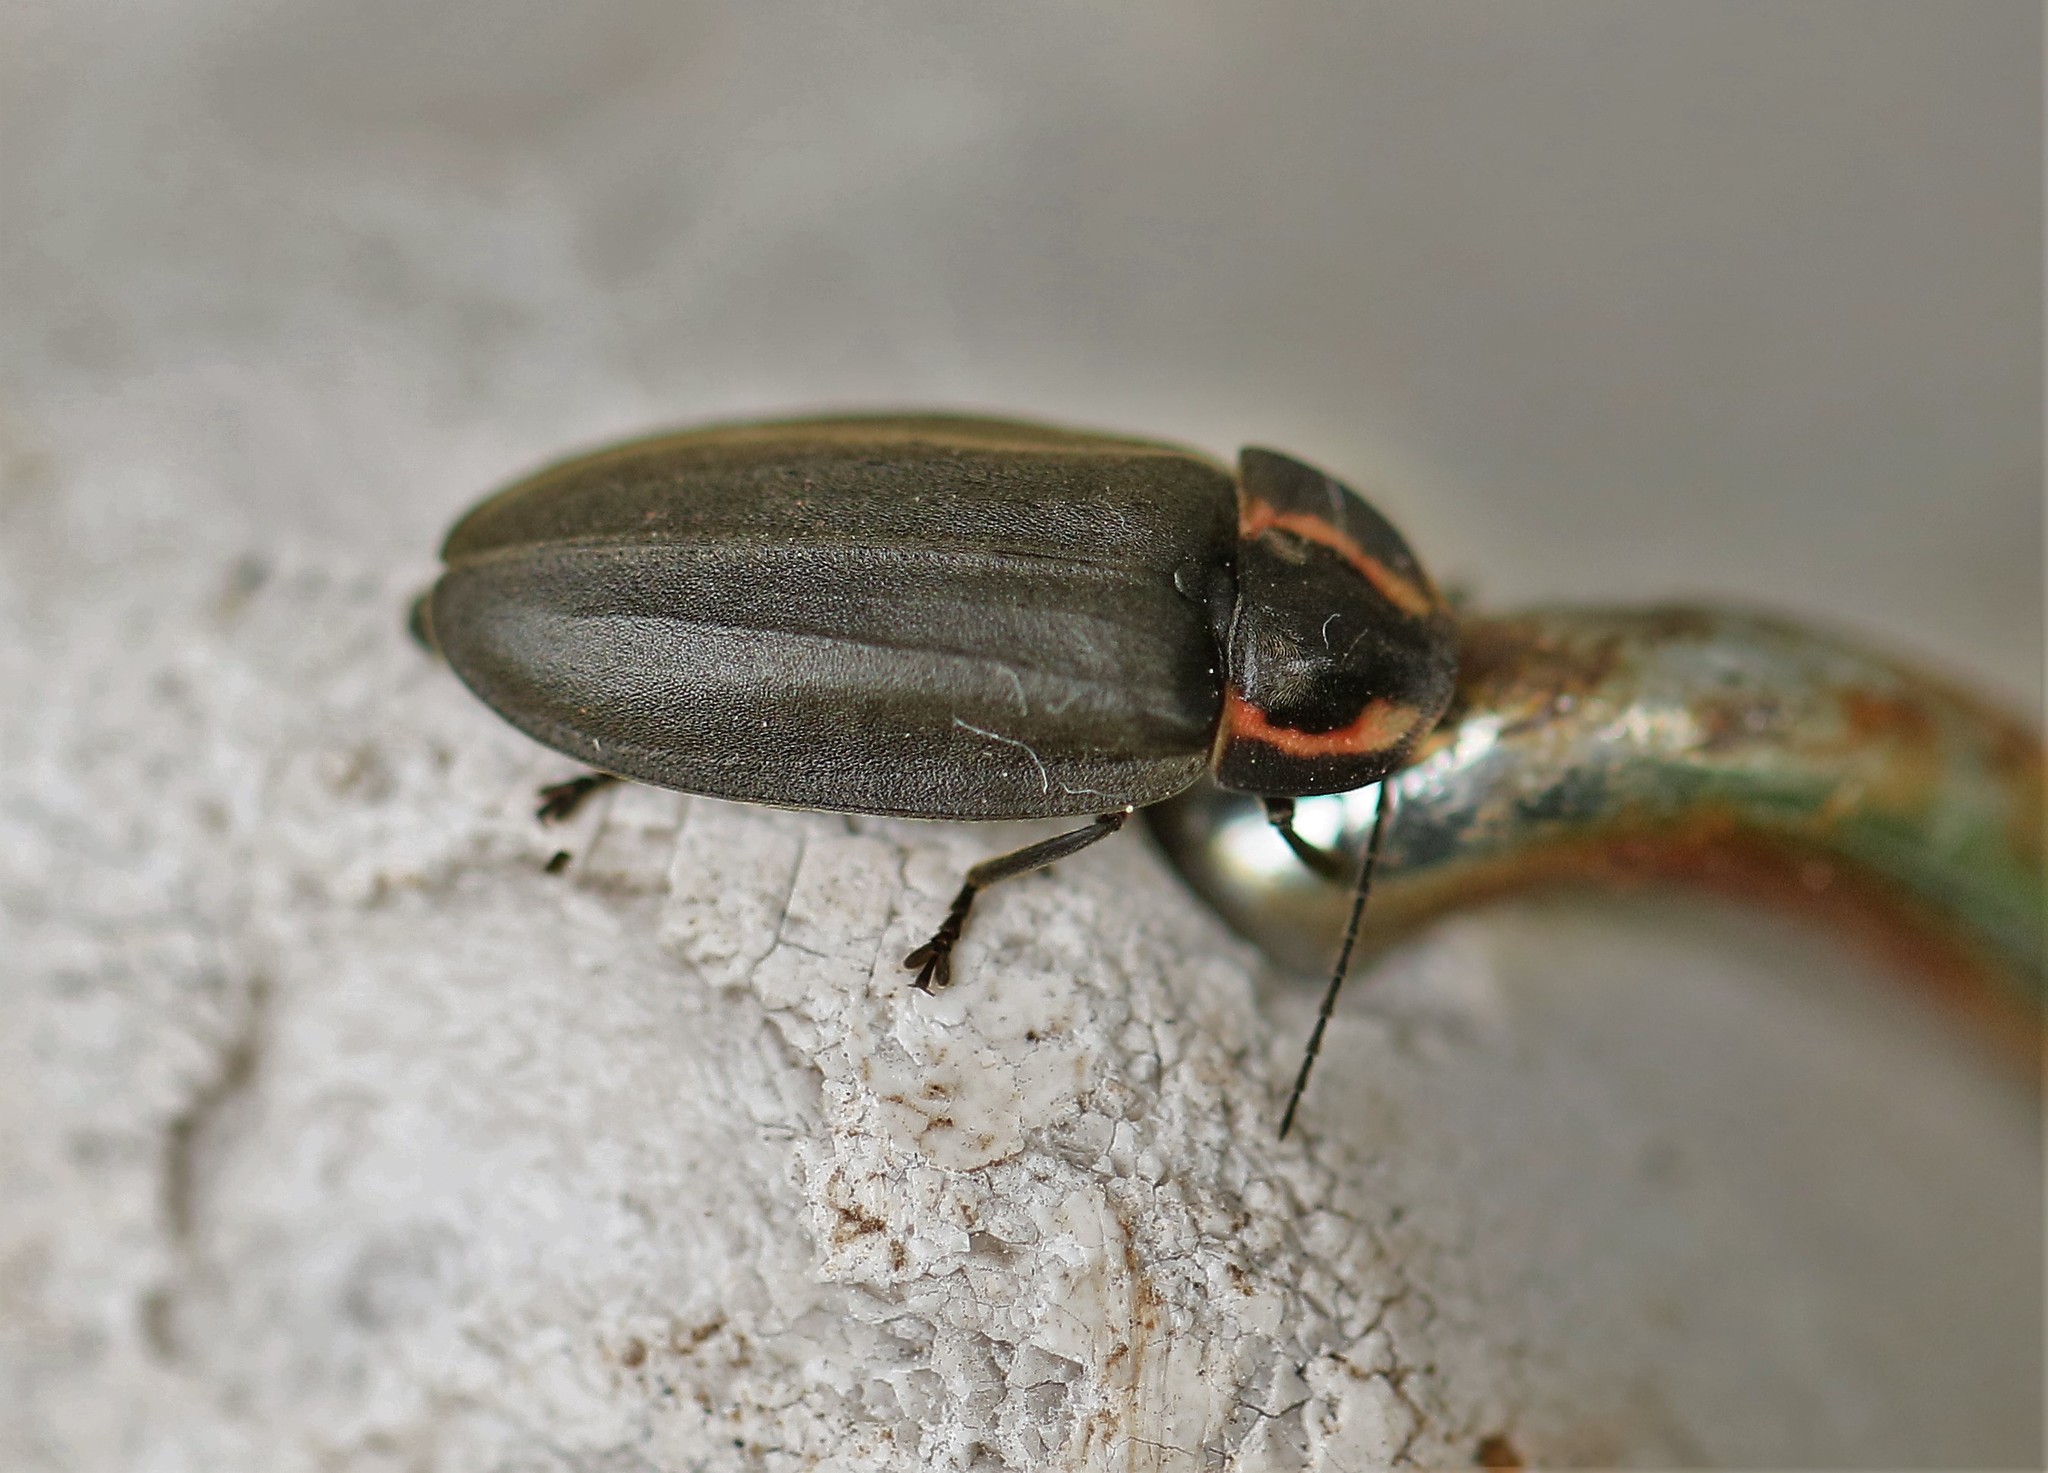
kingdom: Animalia
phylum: Arthropoda
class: Insecta
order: Coleoptera
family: Lampyridae
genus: Photinus
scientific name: Photinus corrusca
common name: Winter firefly
